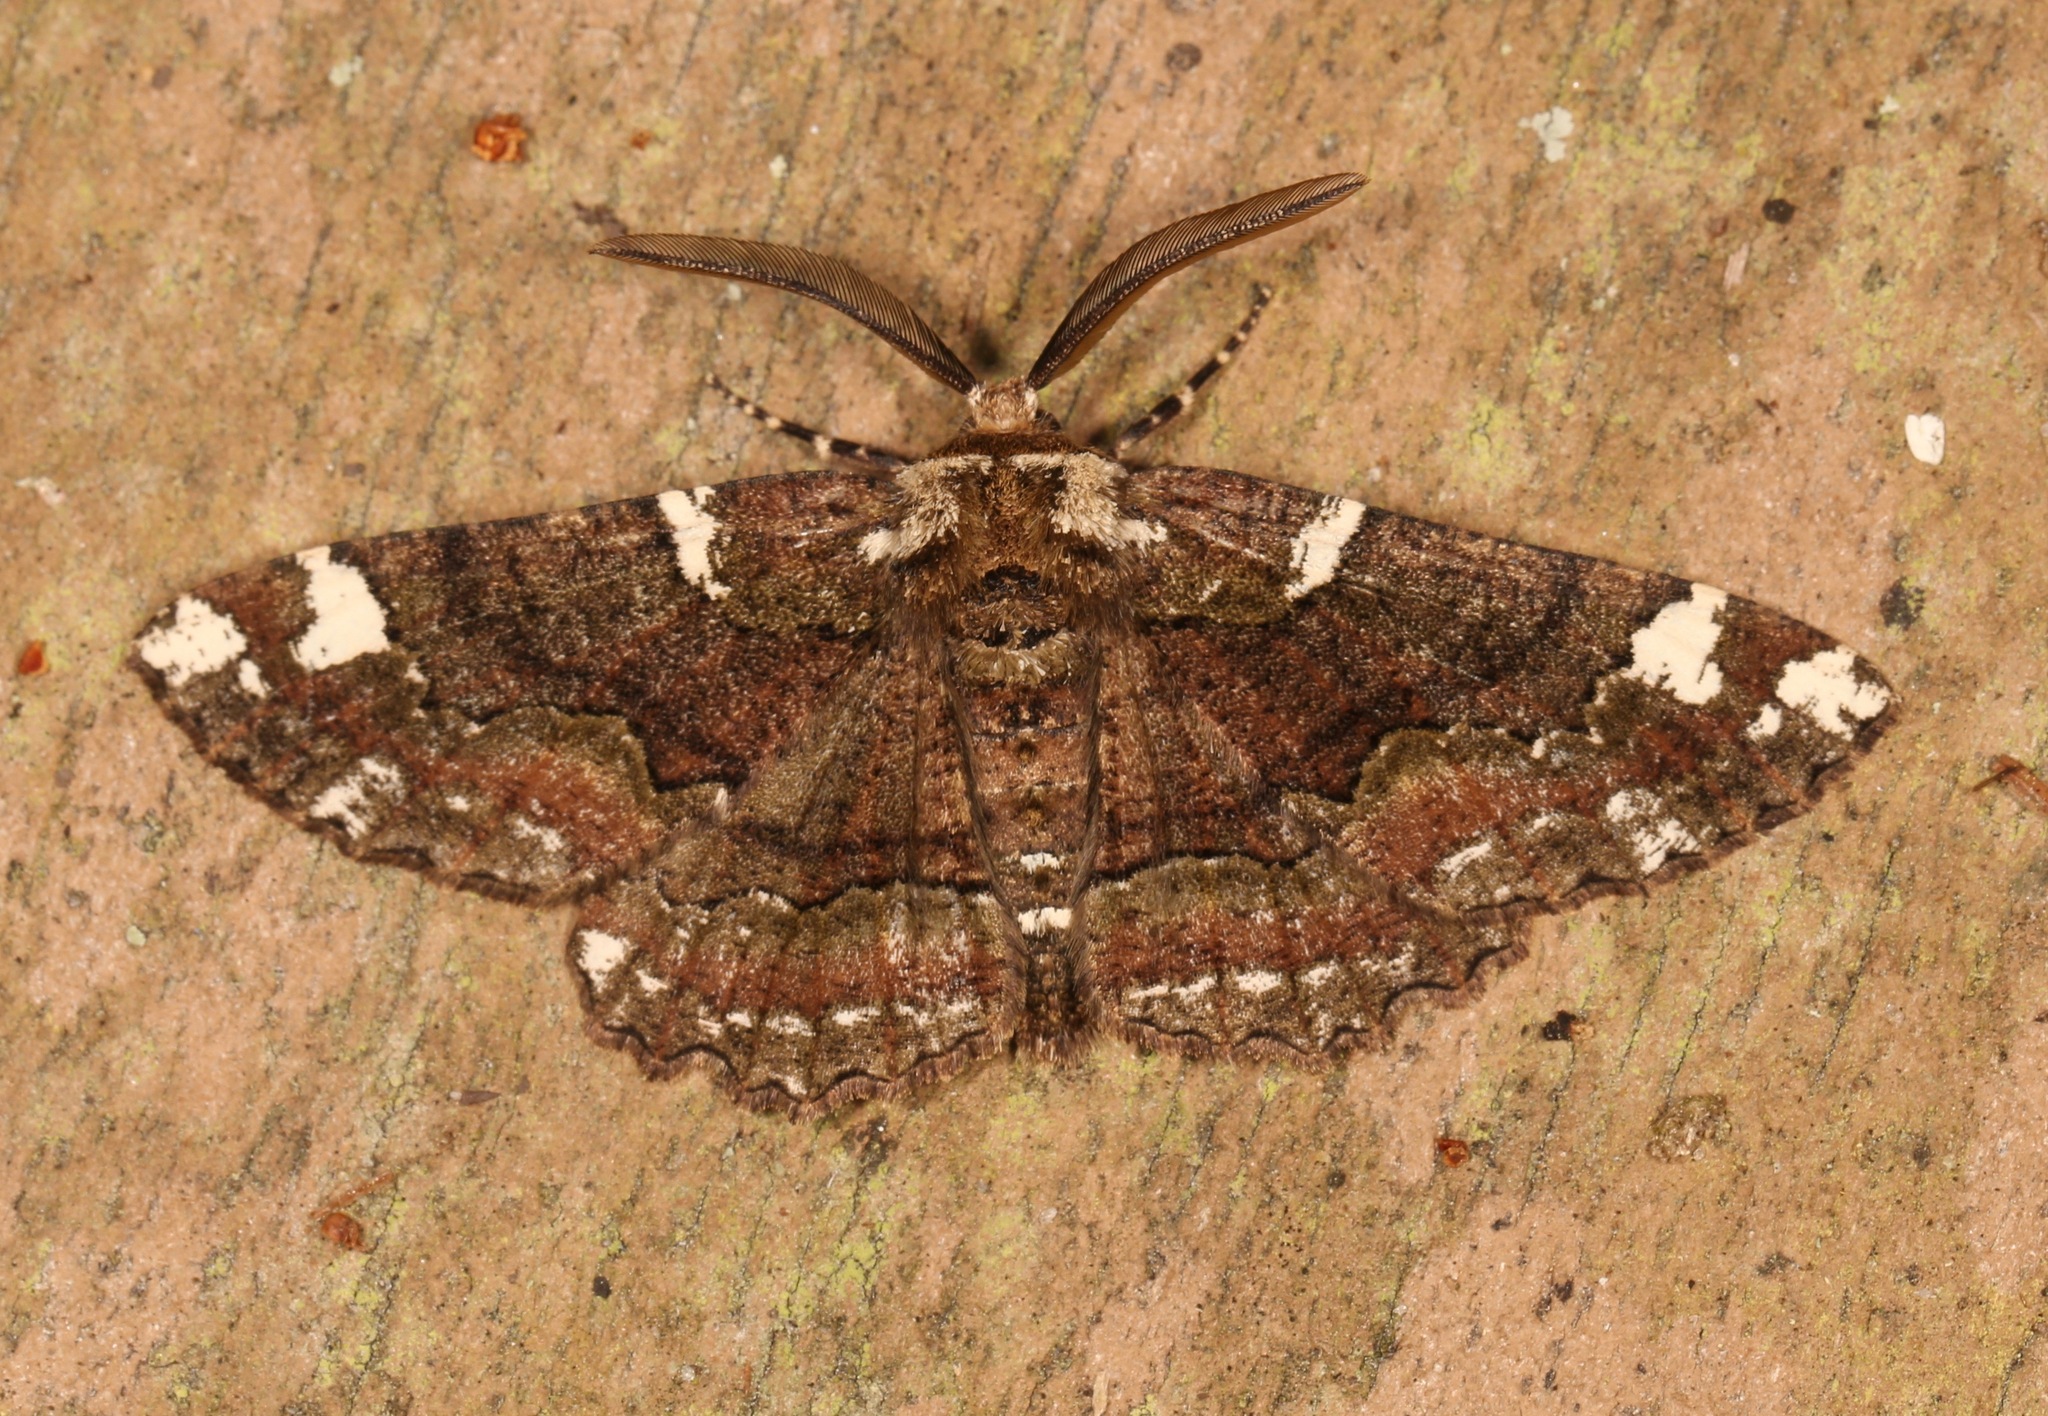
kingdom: Animalia
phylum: Arthropoda
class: Insecta
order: Lepidoptera
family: Geometridae
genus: Phaeoura
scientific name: Phaeoura quernaria
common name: Oak beauty
